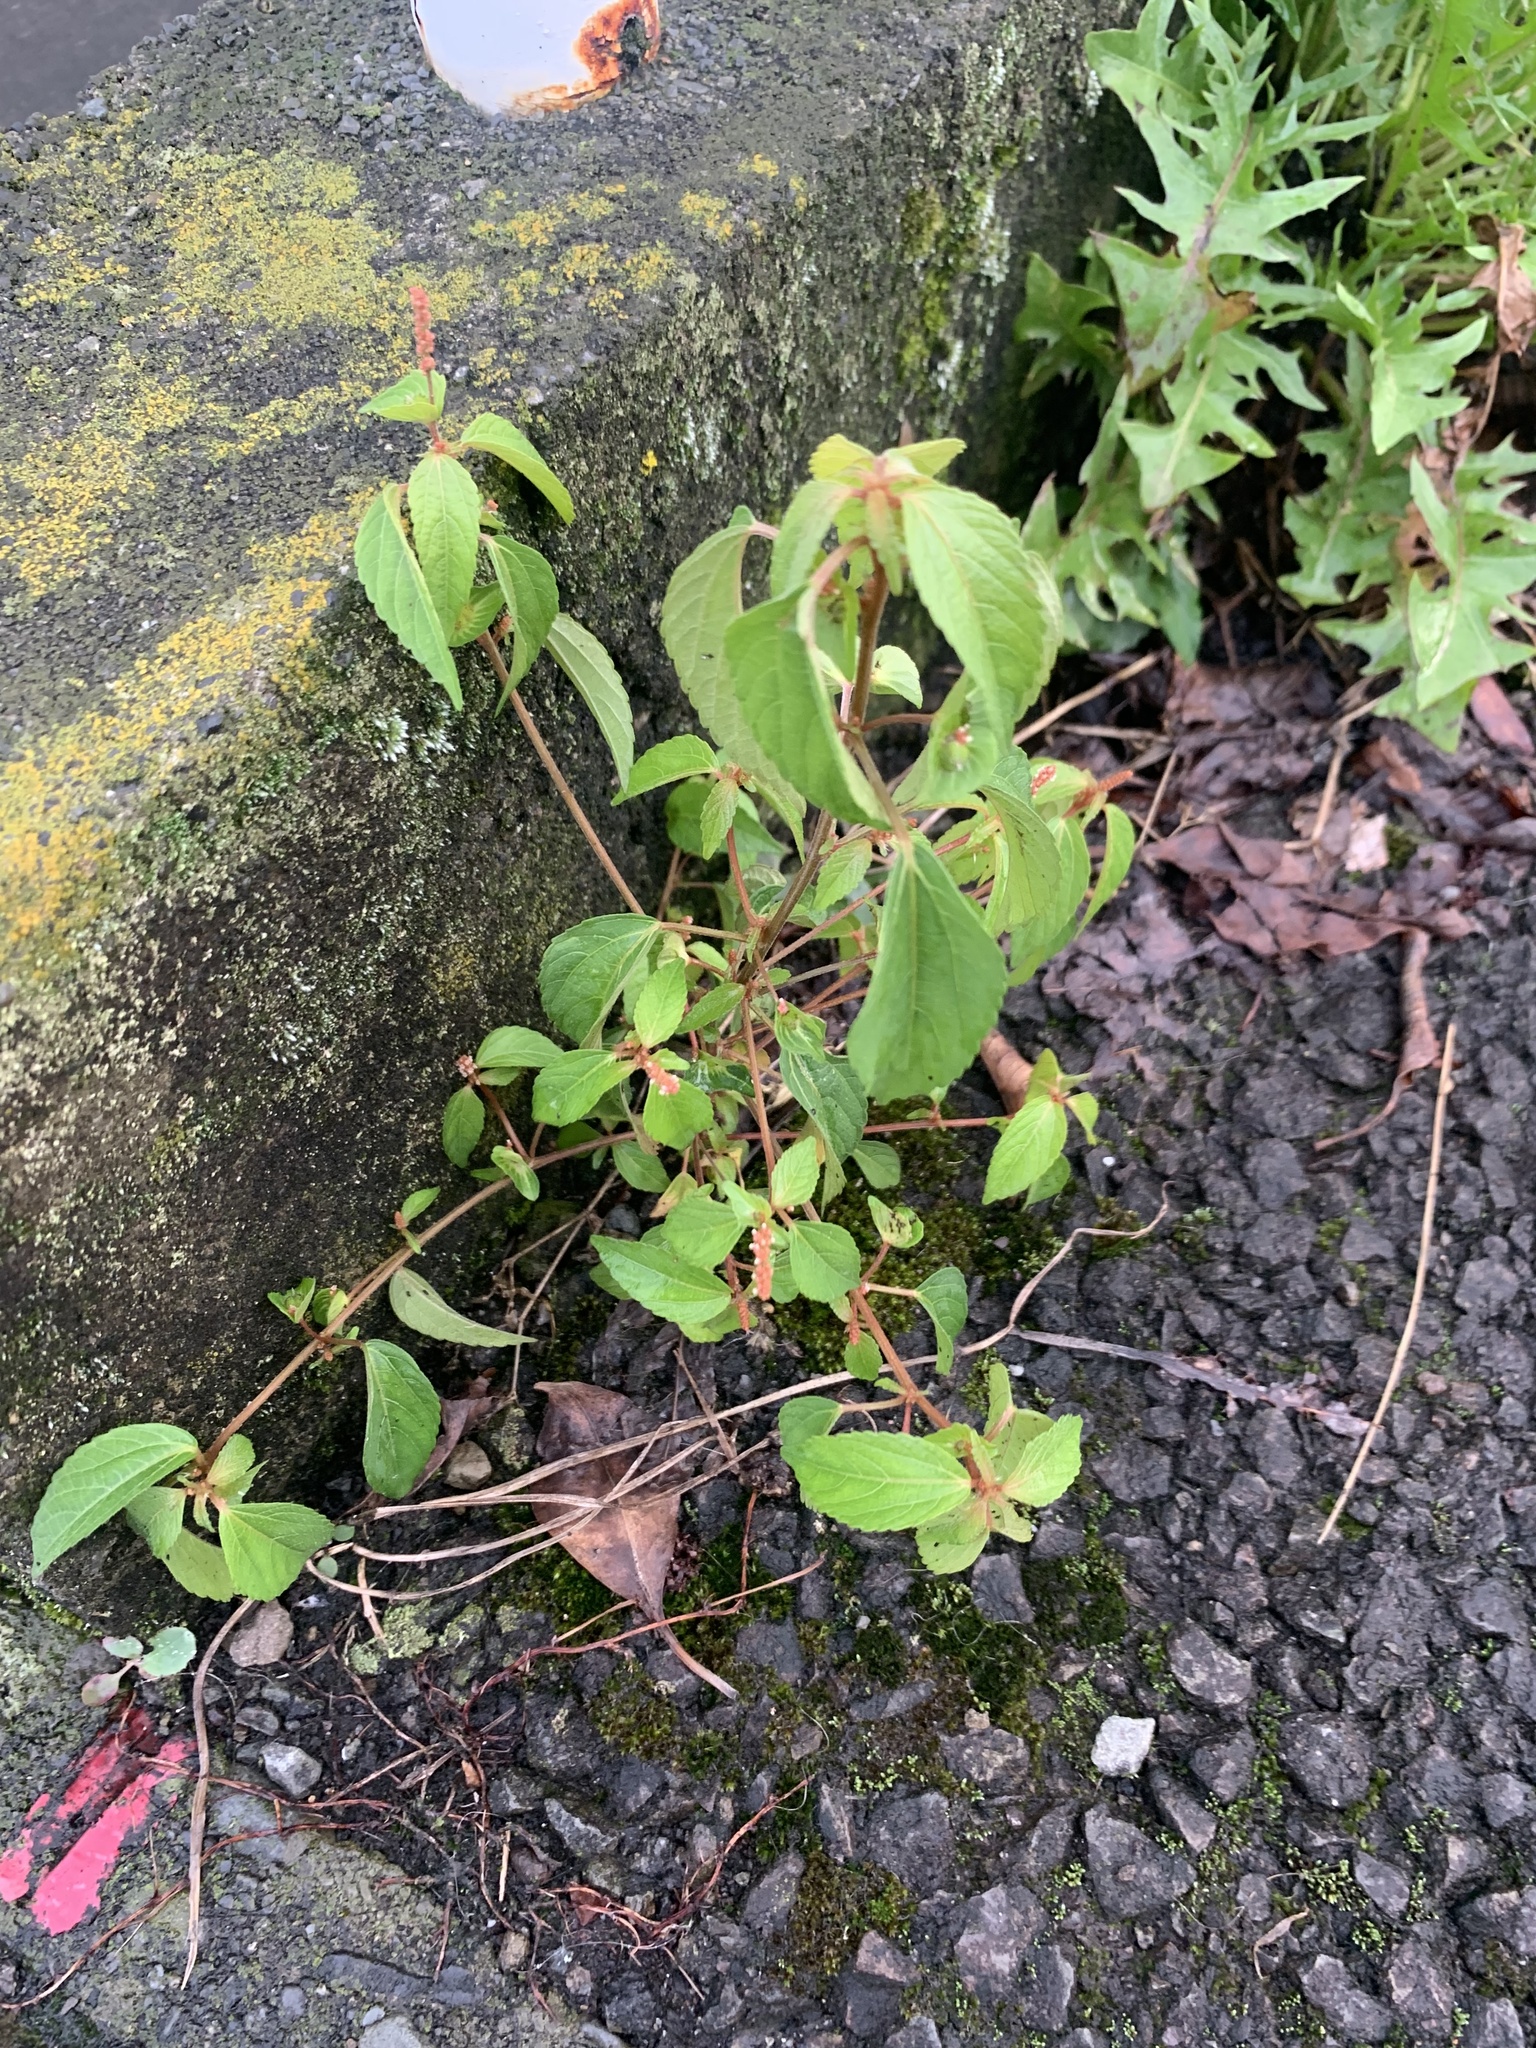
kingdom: Plantae
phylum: Tracheophyta
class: Magnoliopsida
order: Malpighiales
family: Euphorbiaceae
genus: Acalypha
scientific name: Acalypha australis
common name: Asian copperleaf
